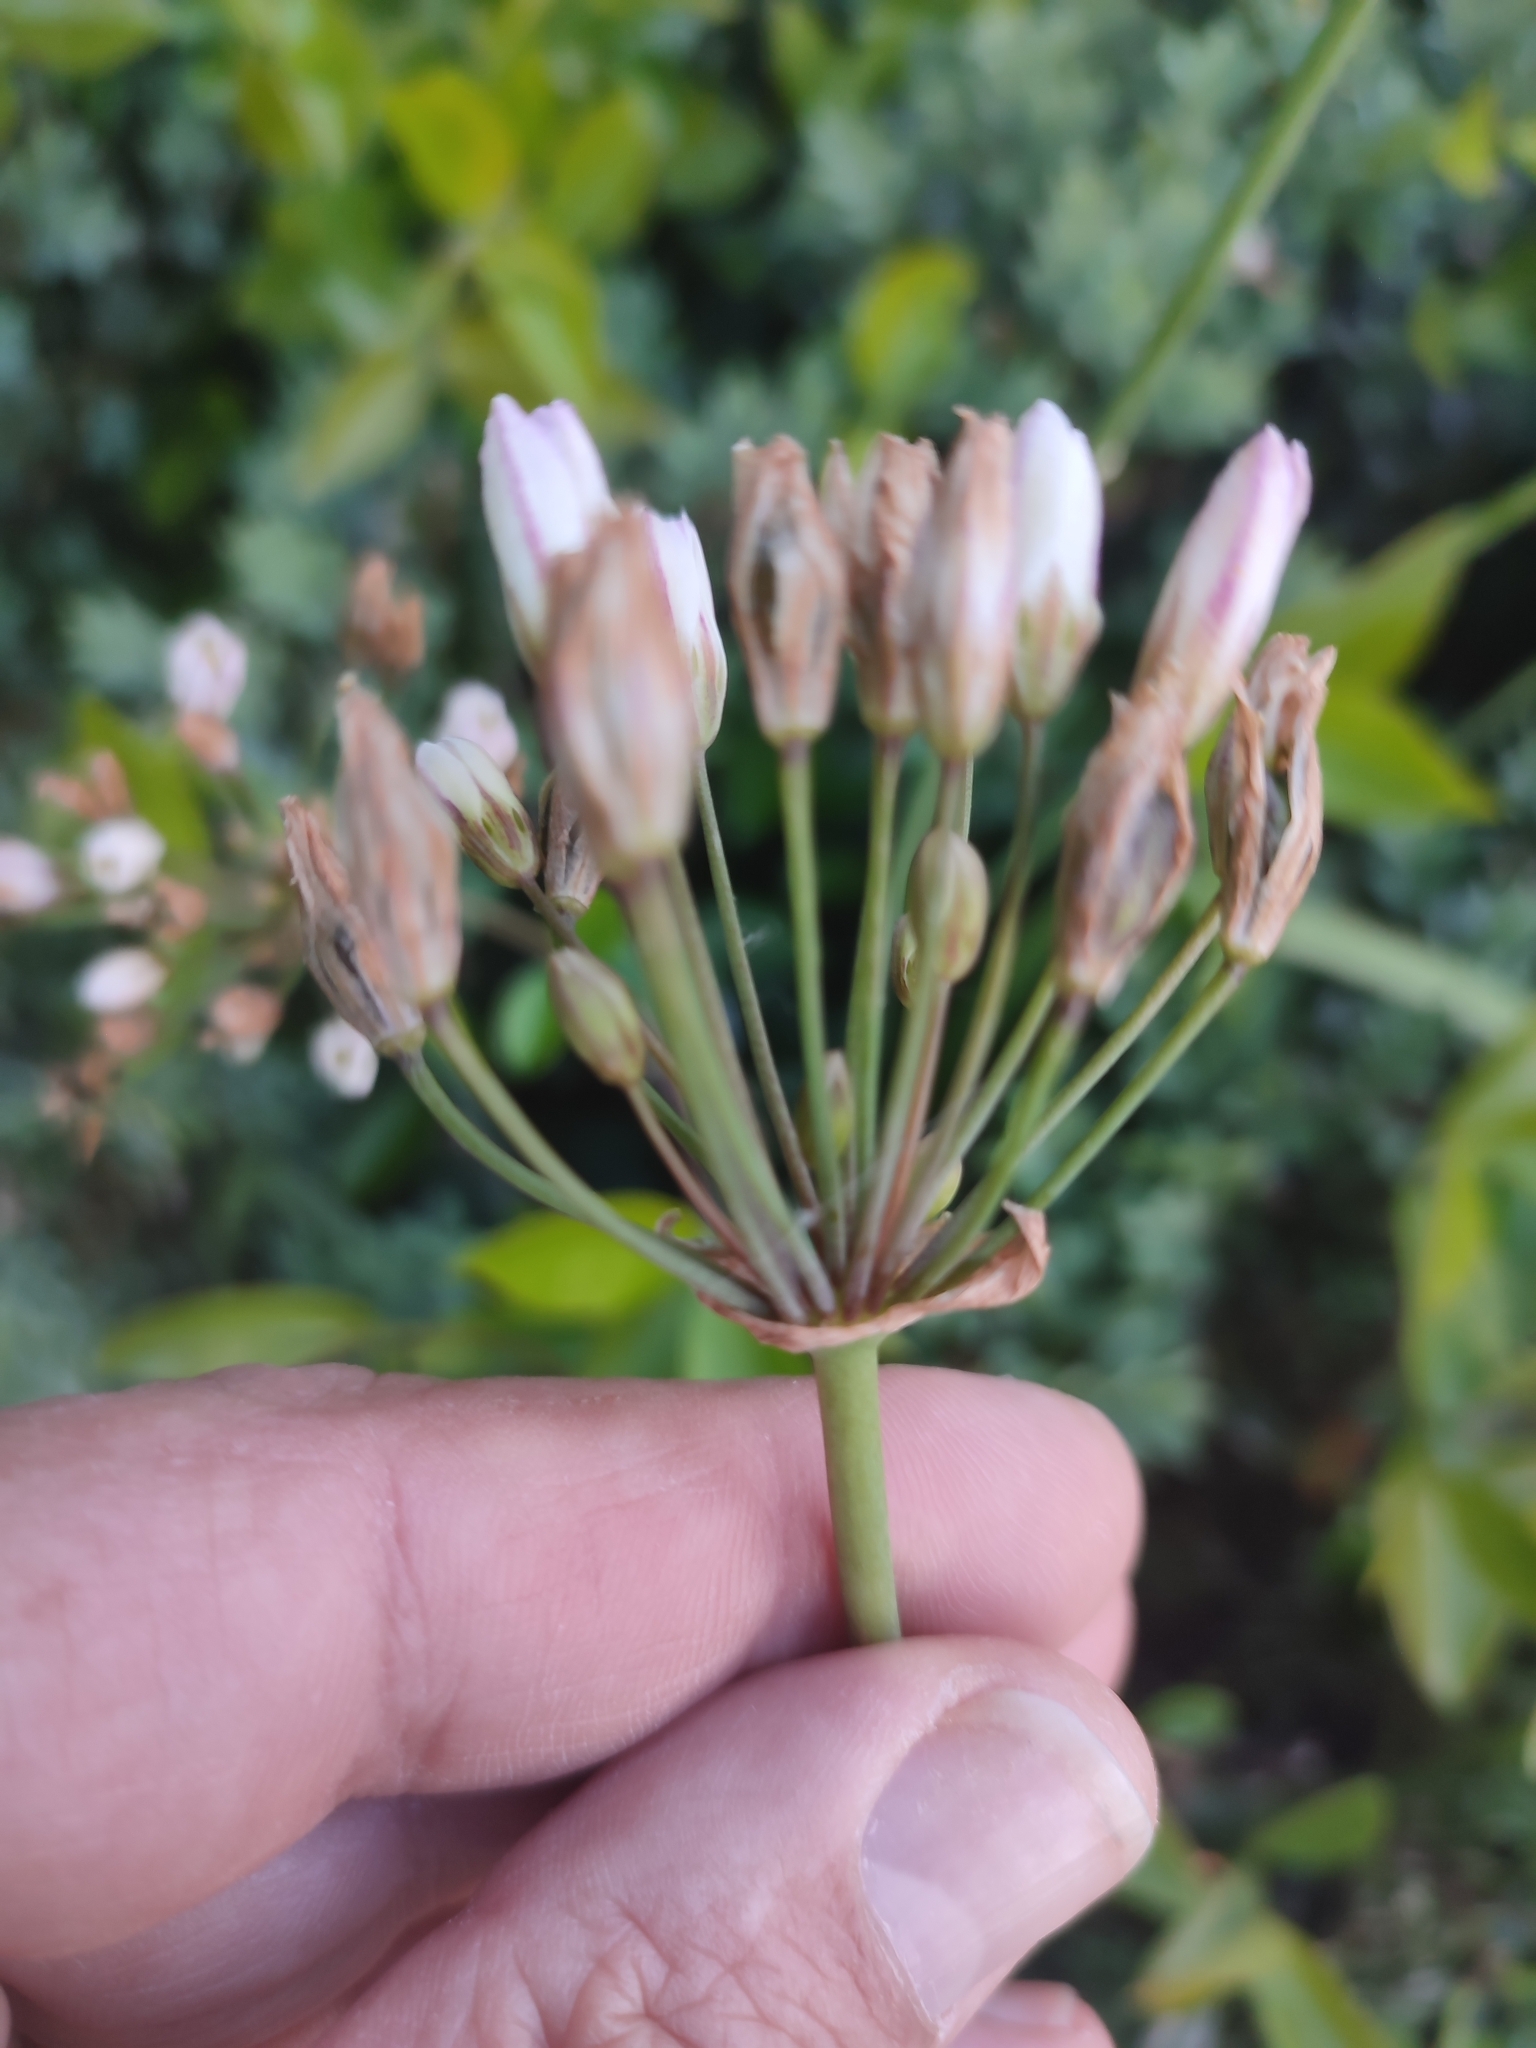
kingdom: Plantae
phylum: Tracheophyta
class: Liliopsida
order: Asparagales
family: Amaryllidaceae
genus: Nothoscordum
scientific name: Nothoscordum gracile
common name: Slender false garlic
